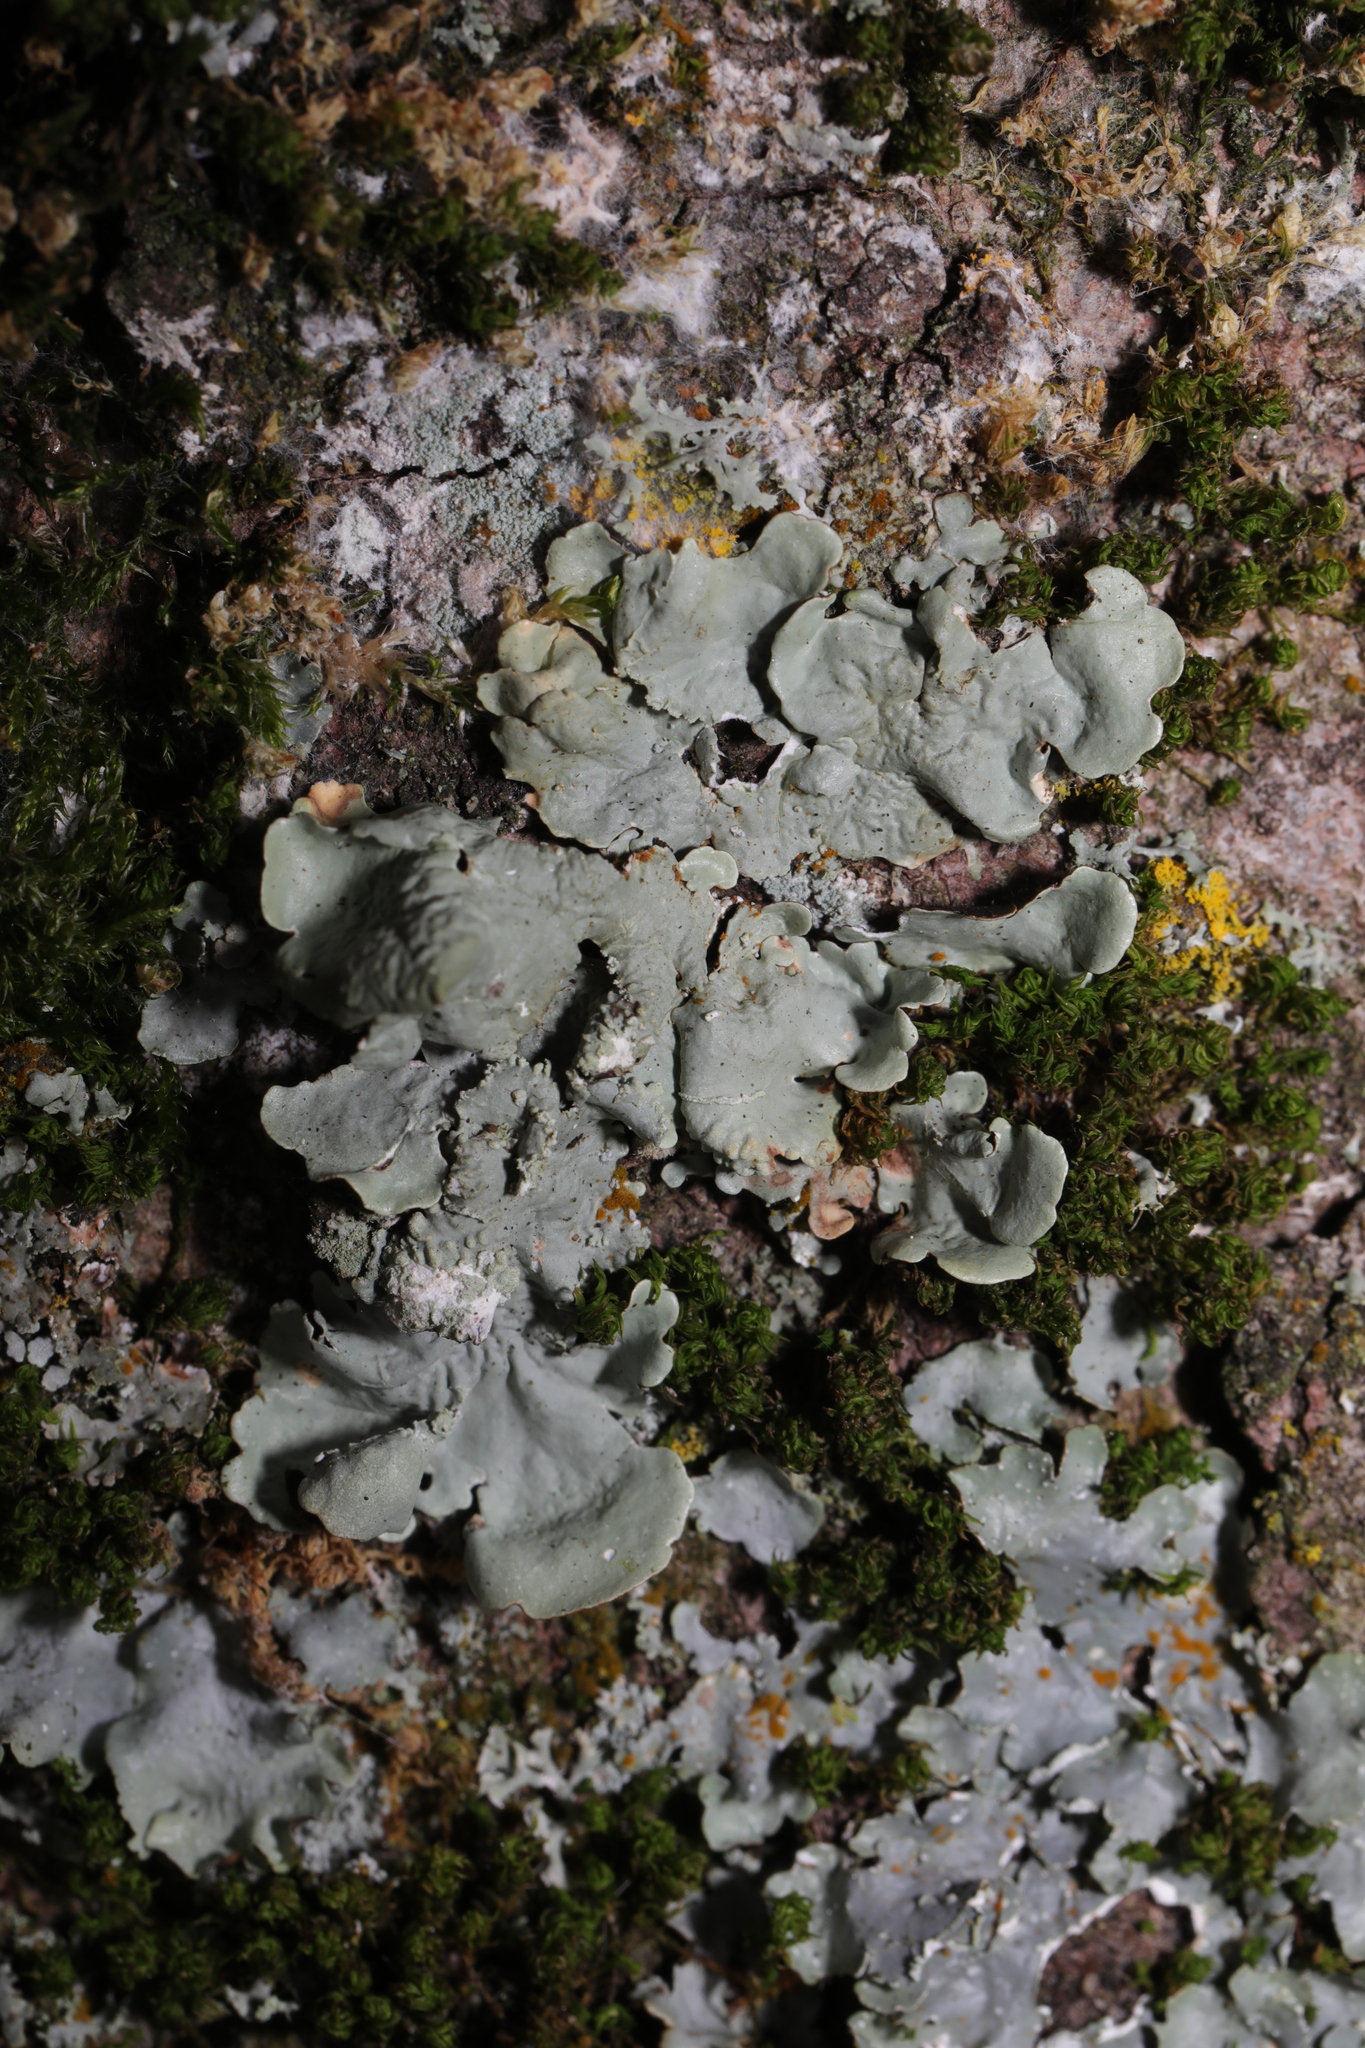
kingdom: Fungi
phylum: Ascomycota
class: Lecanoromycetes
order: Lecanorales
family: Parmeliaceae
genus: Flavoparmelia
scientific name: Flavoparmelia caperata
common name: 40-mile per hour lichen
